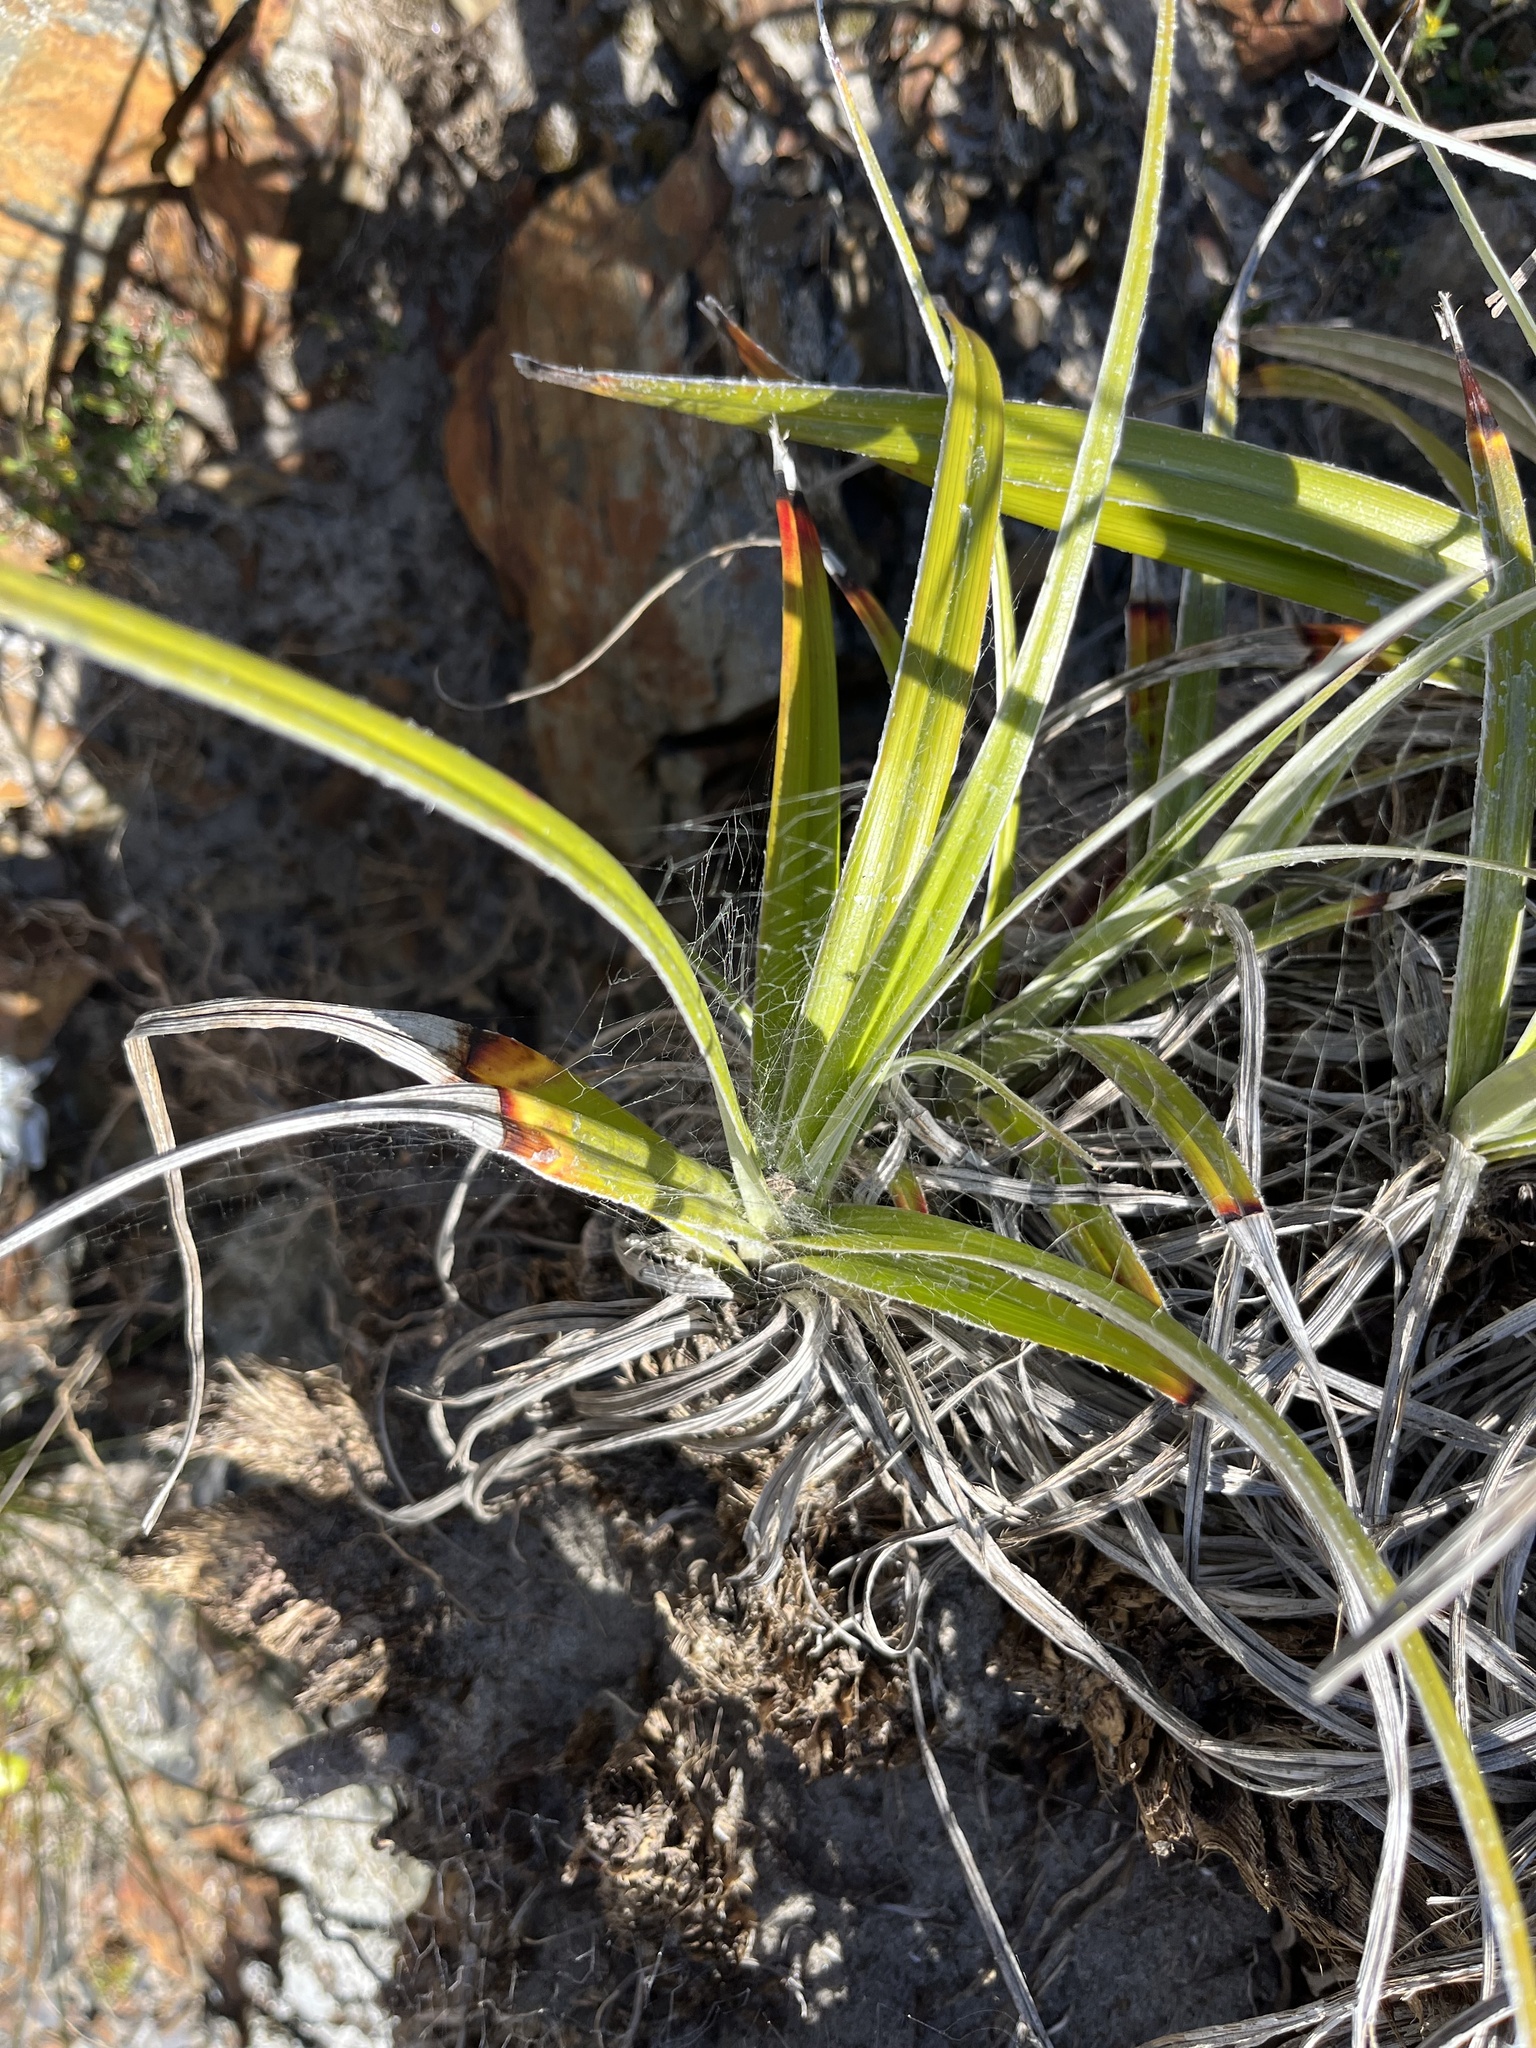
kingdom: Plantae
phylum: Tracheophyta
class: Liliopsida
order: Asparagales
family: Asteliaceae
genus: Astelia
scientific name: Astelia banksii
